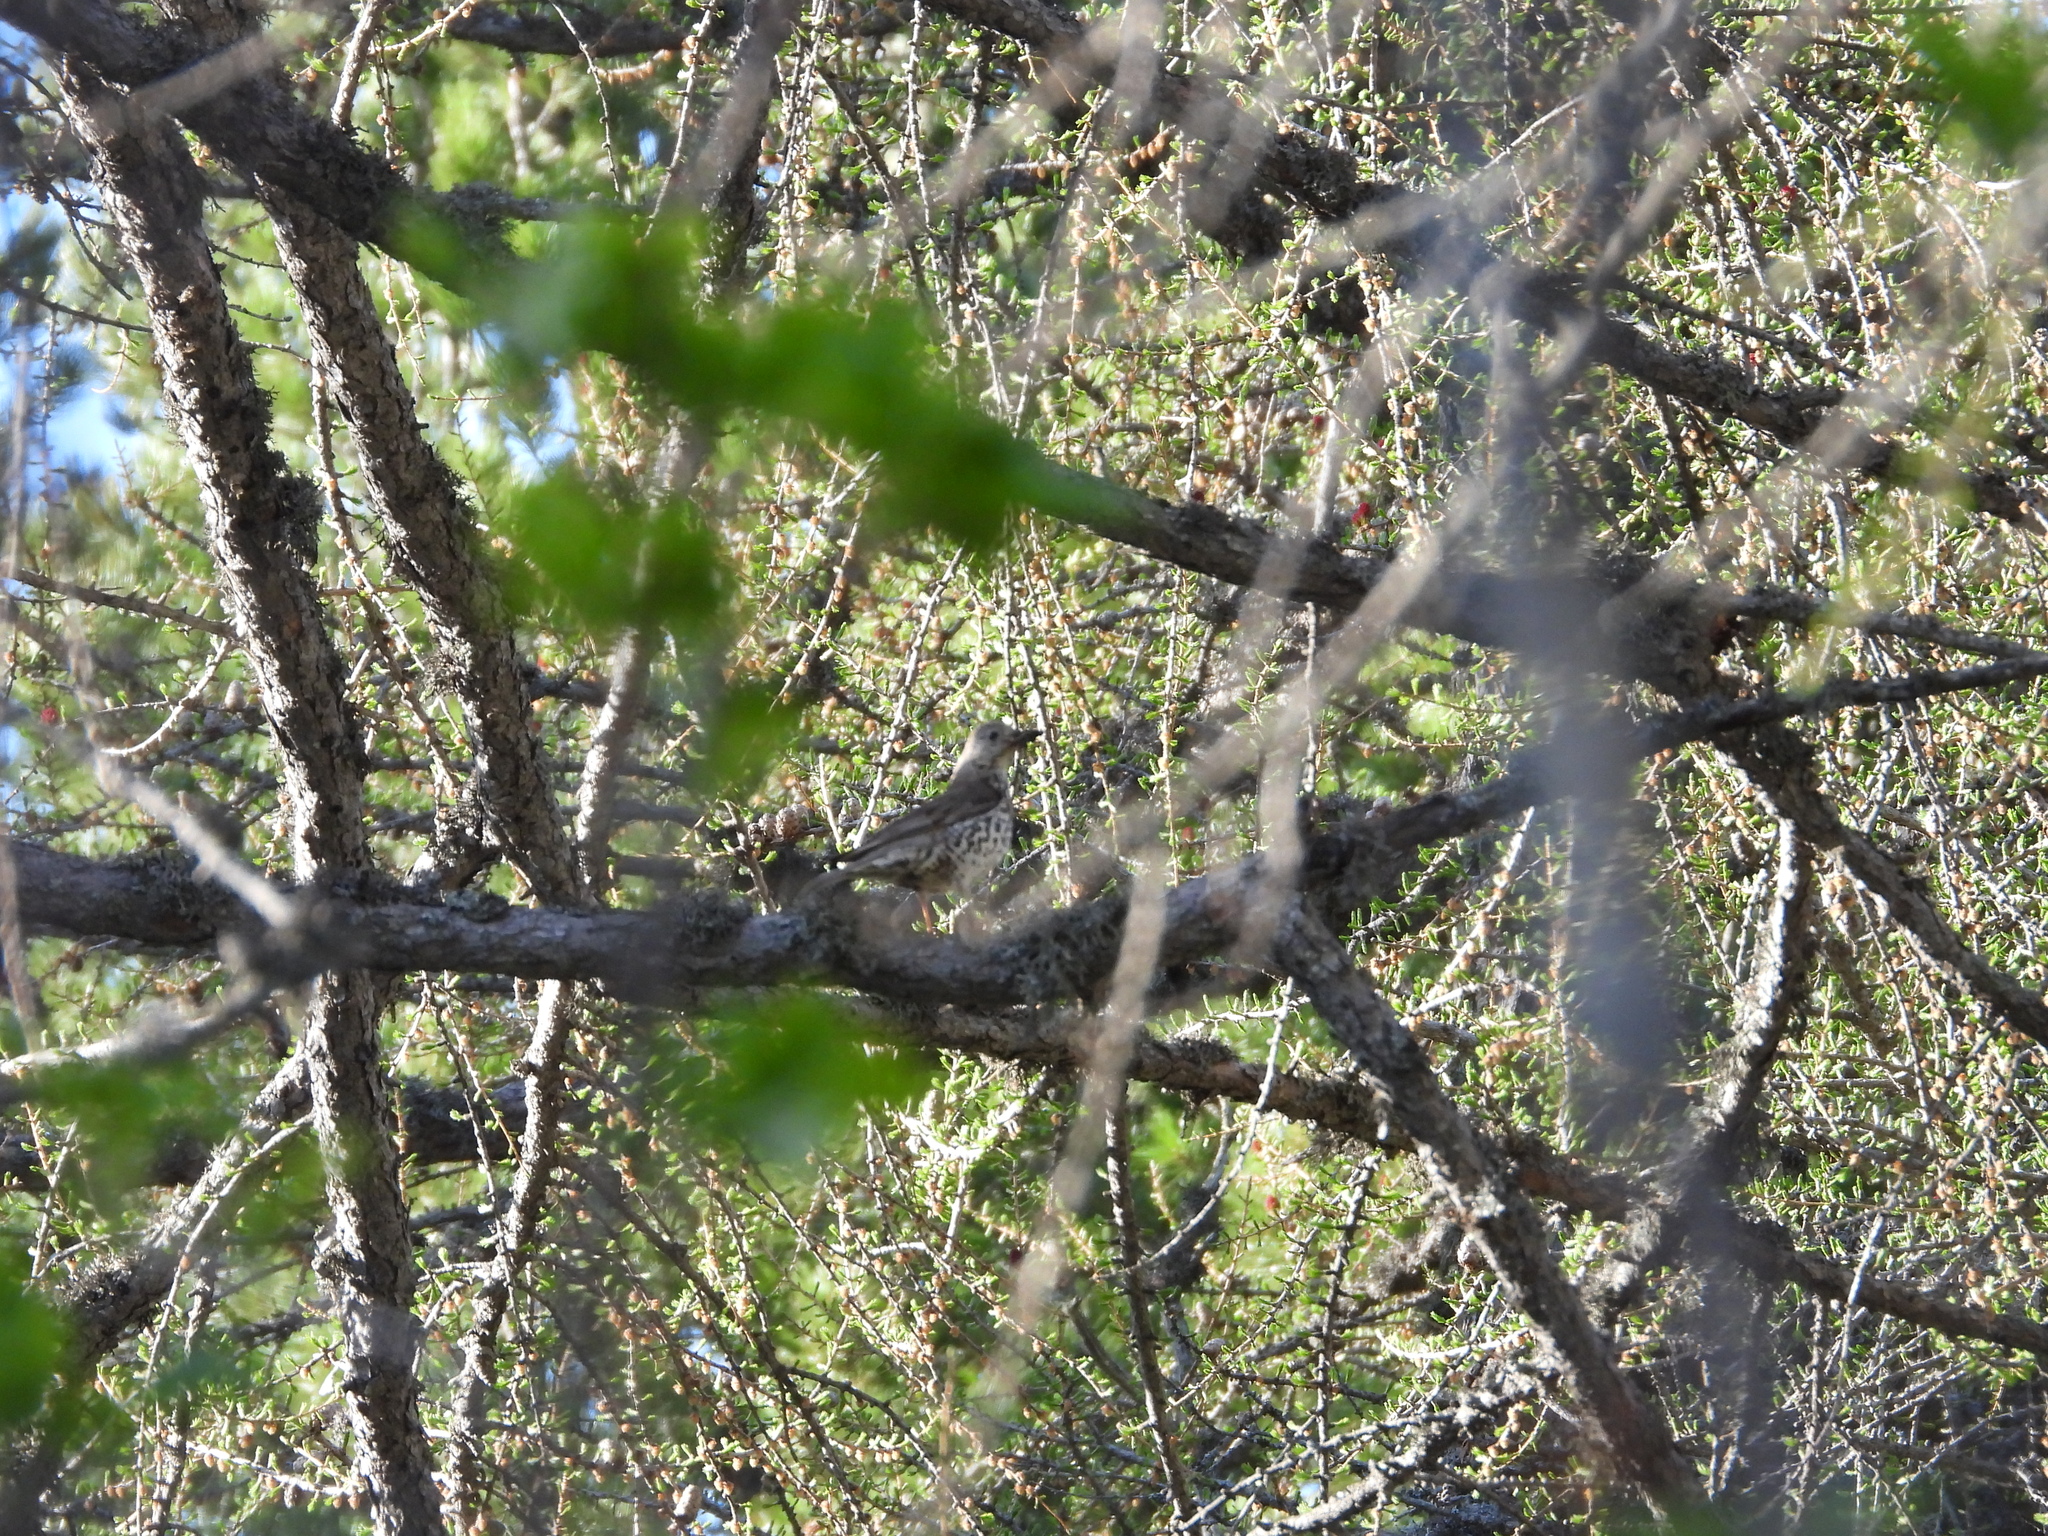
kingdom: Animalia
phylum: Chordata
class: Aves
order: Passeriformes
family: Turdidae
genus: Turdus
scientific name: Turdus viscivorus
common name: Mistle thrush
